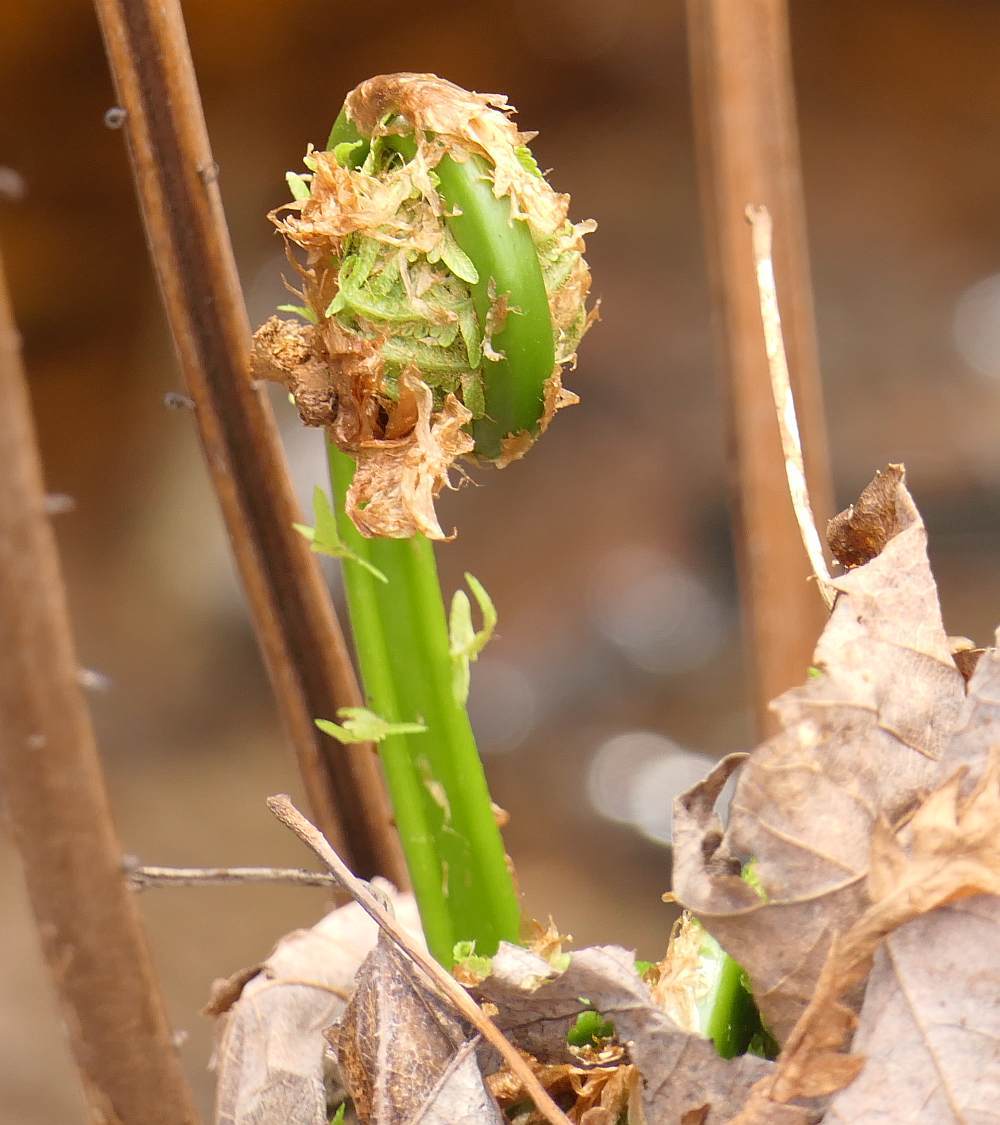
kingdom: Plantae
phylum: Tracheophyta
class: Polypodiopsida
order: Polypodiales
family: Onocleaceae
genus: Matteuccia
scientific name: Matteuccia struthiopteris
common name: Ostrich fern
